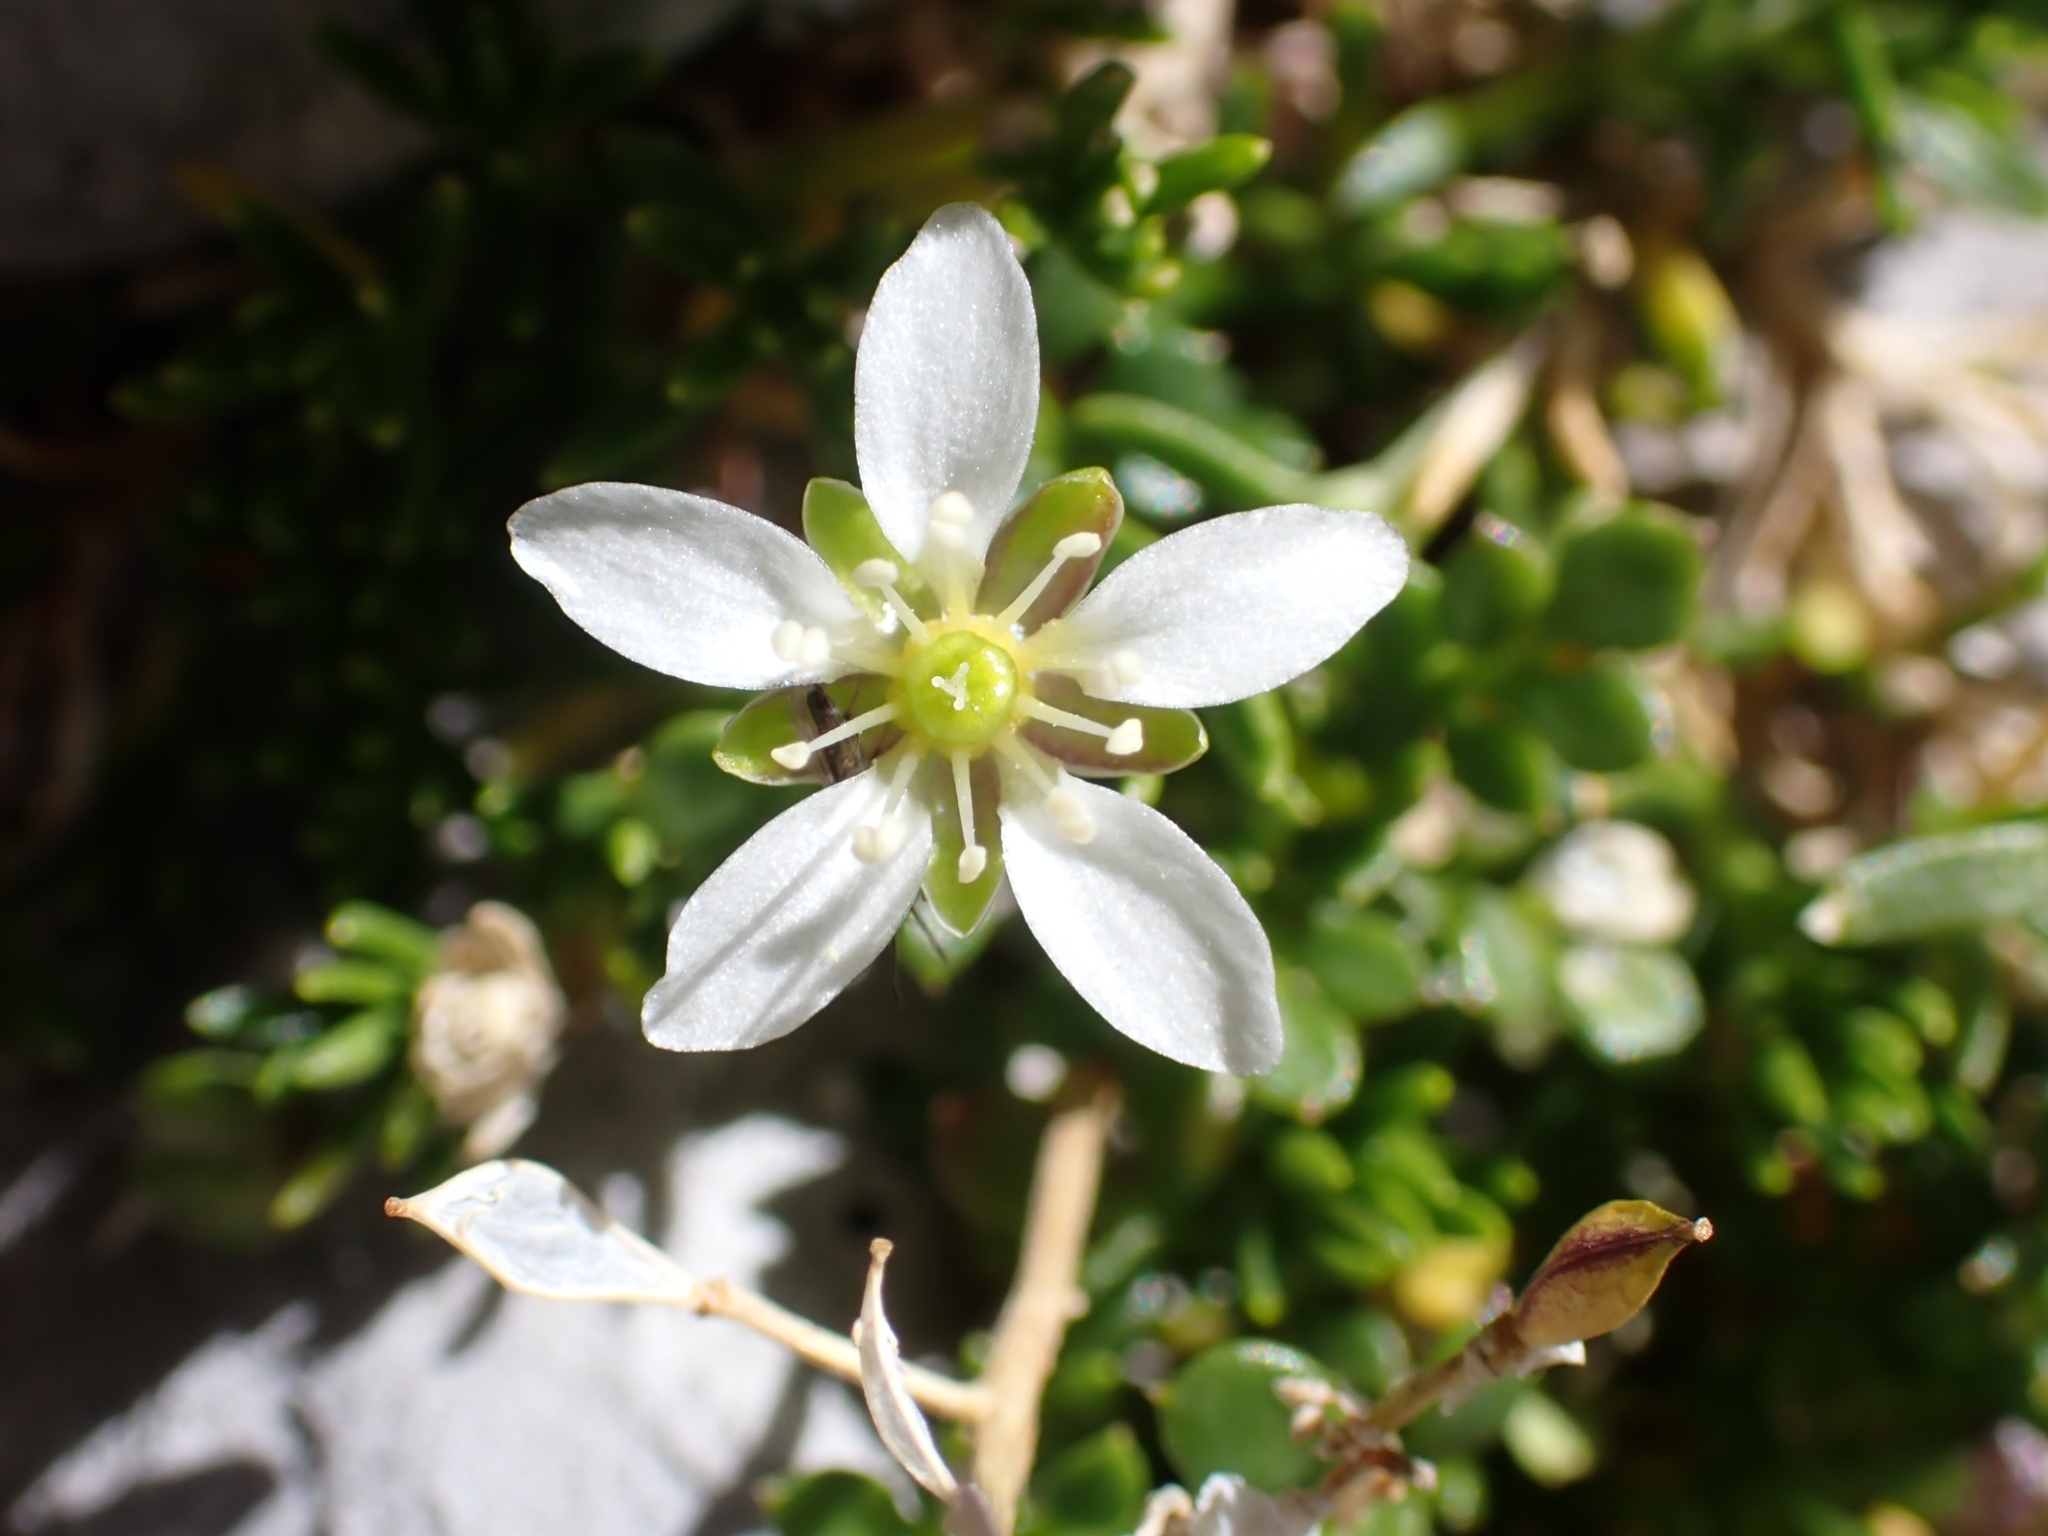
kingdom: Plantae
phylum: Tracheophyta
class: Magnoliopsida
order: Caryophyllales
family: Caryophyllaceae
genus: Moehringia
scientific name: Moehringia ciliata
